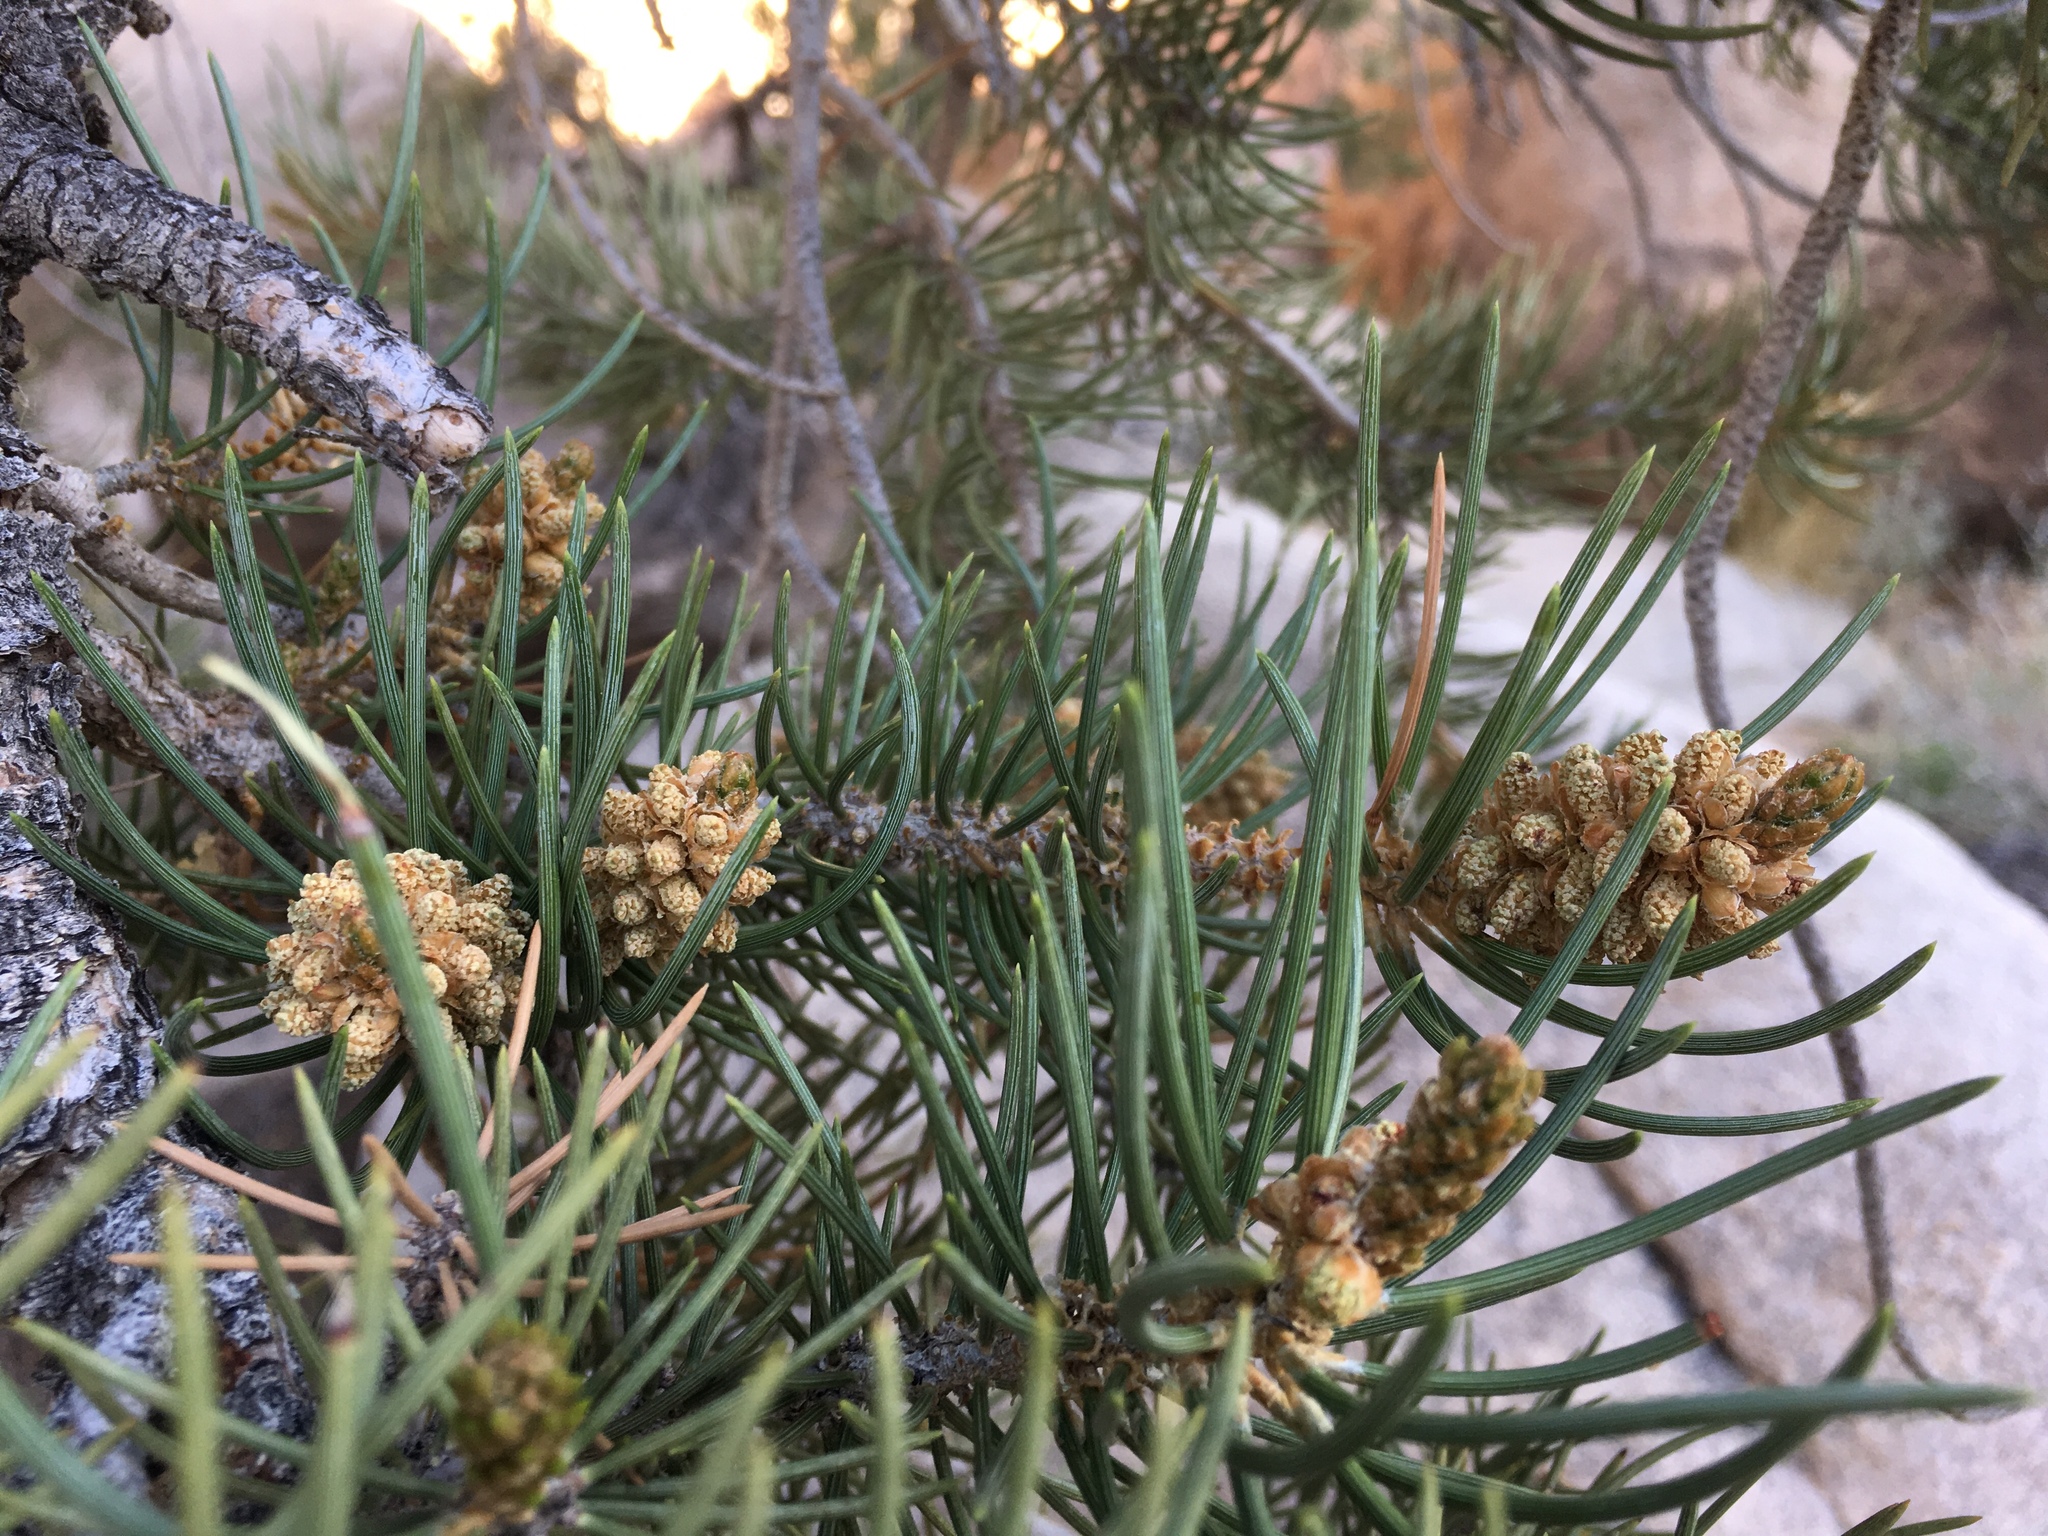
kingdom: Plantae
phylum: Tracheophyta
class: Pinopsida
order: Pinales
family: Pinaceae
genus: Pinus
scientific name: Pinus monophylla
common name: One-leaved nut pine
